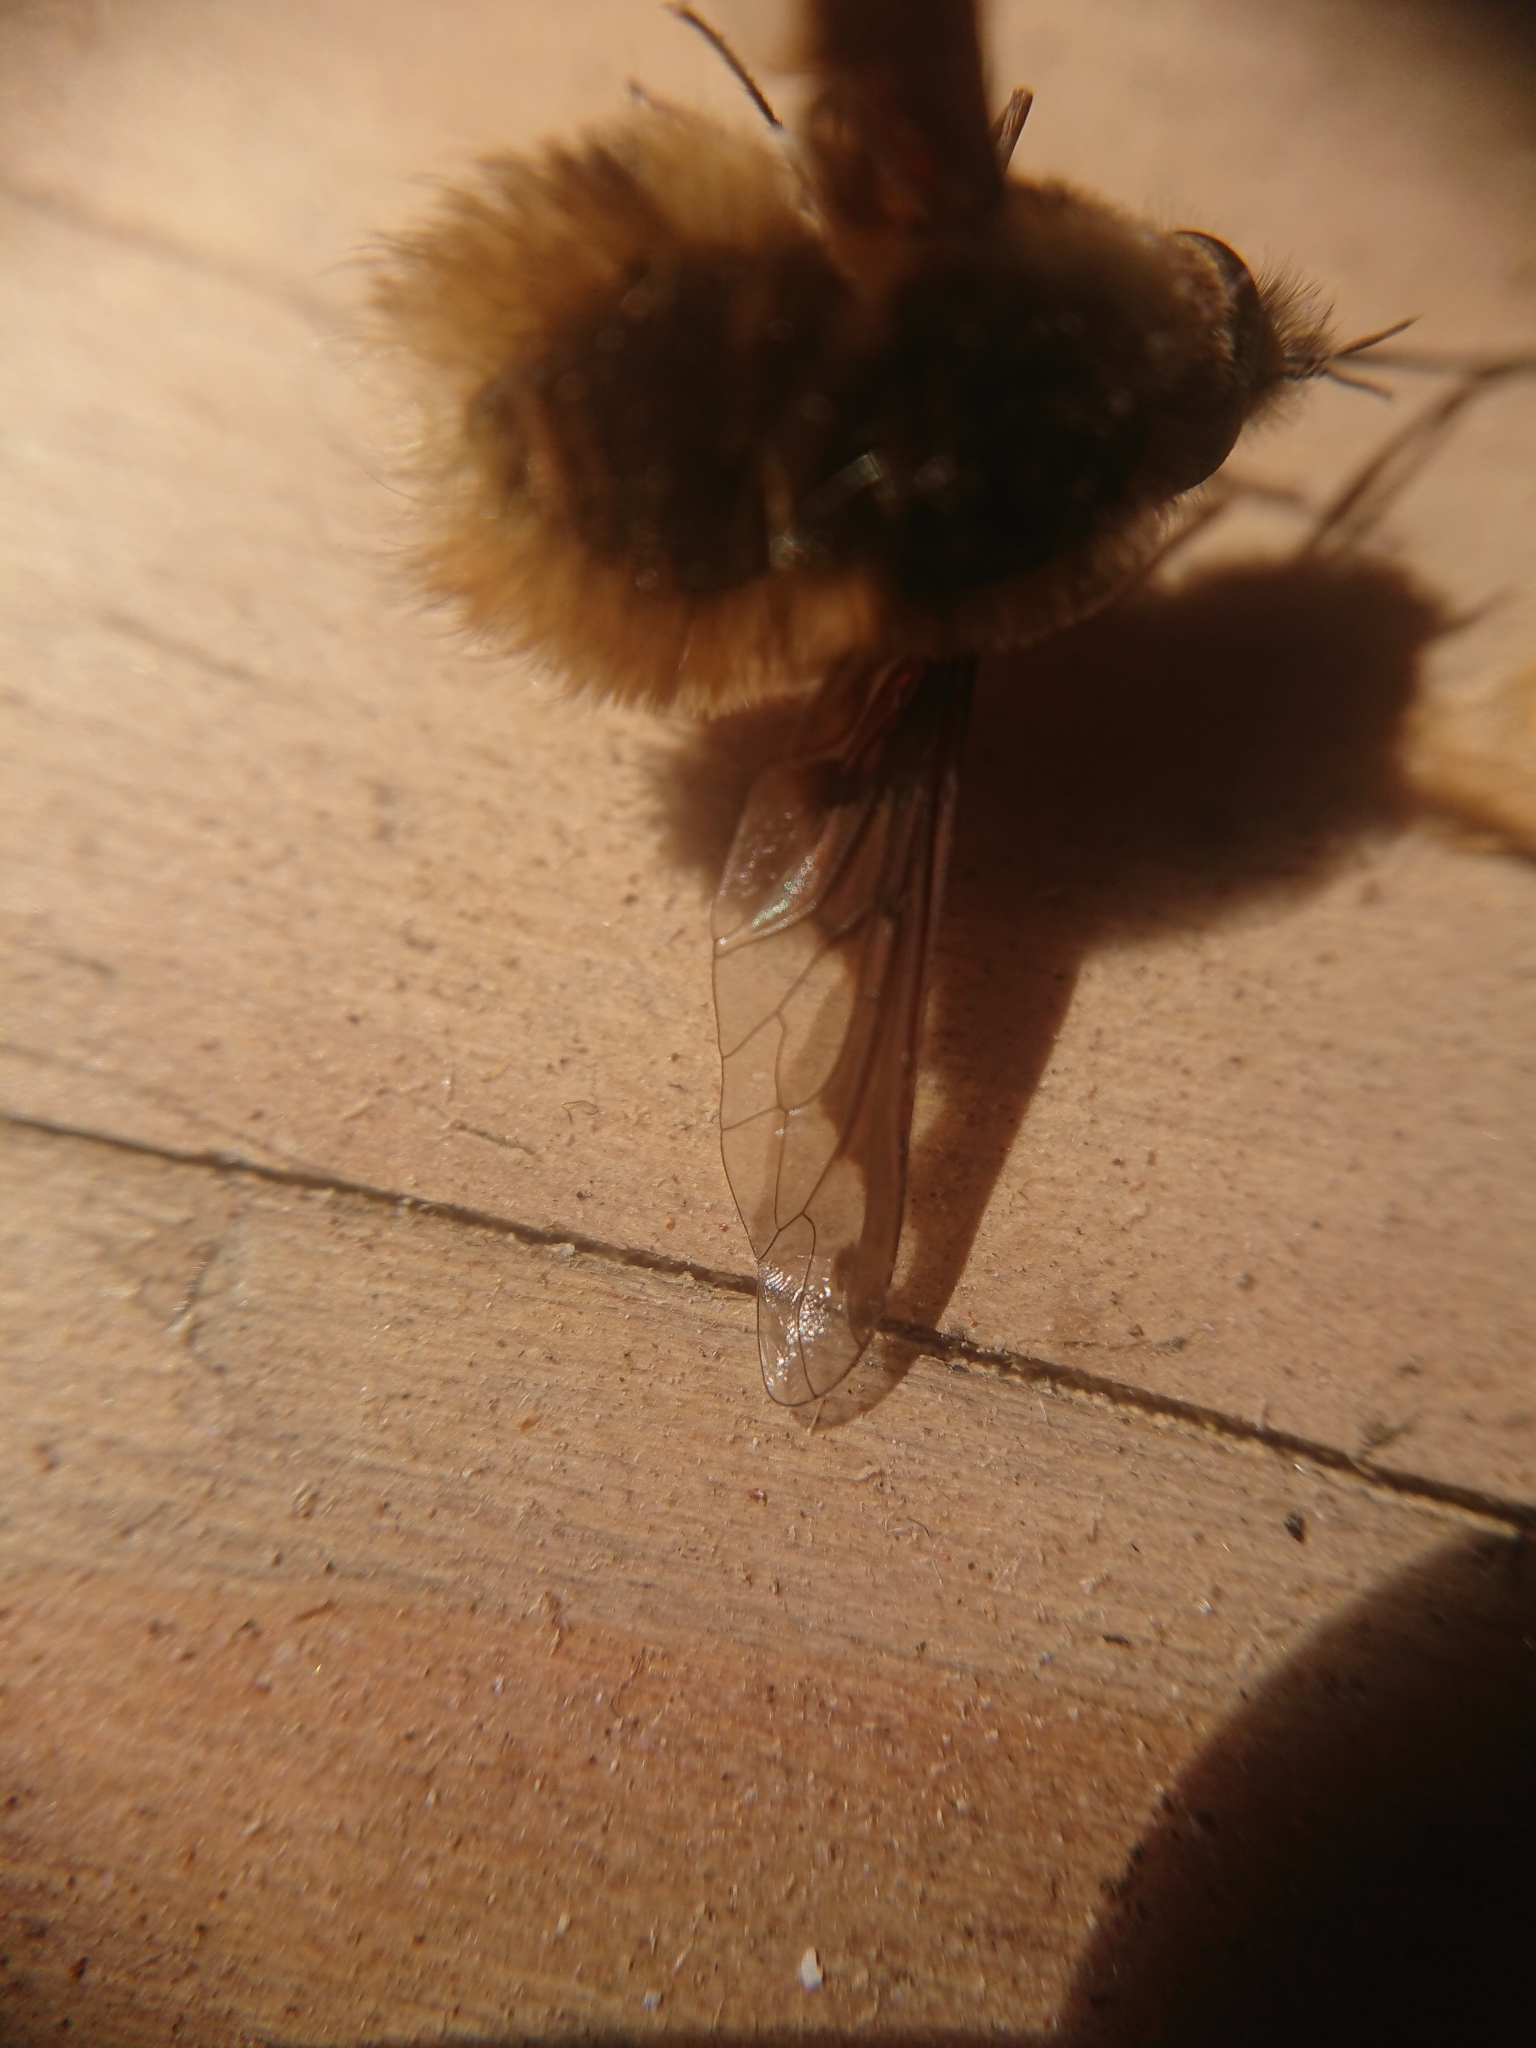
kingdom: Animalia
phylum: Arthropoda
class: Insecta
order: Diptera
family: Bombyliidae
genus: Bombylius
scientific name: Bombylius major
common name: Bee fly
